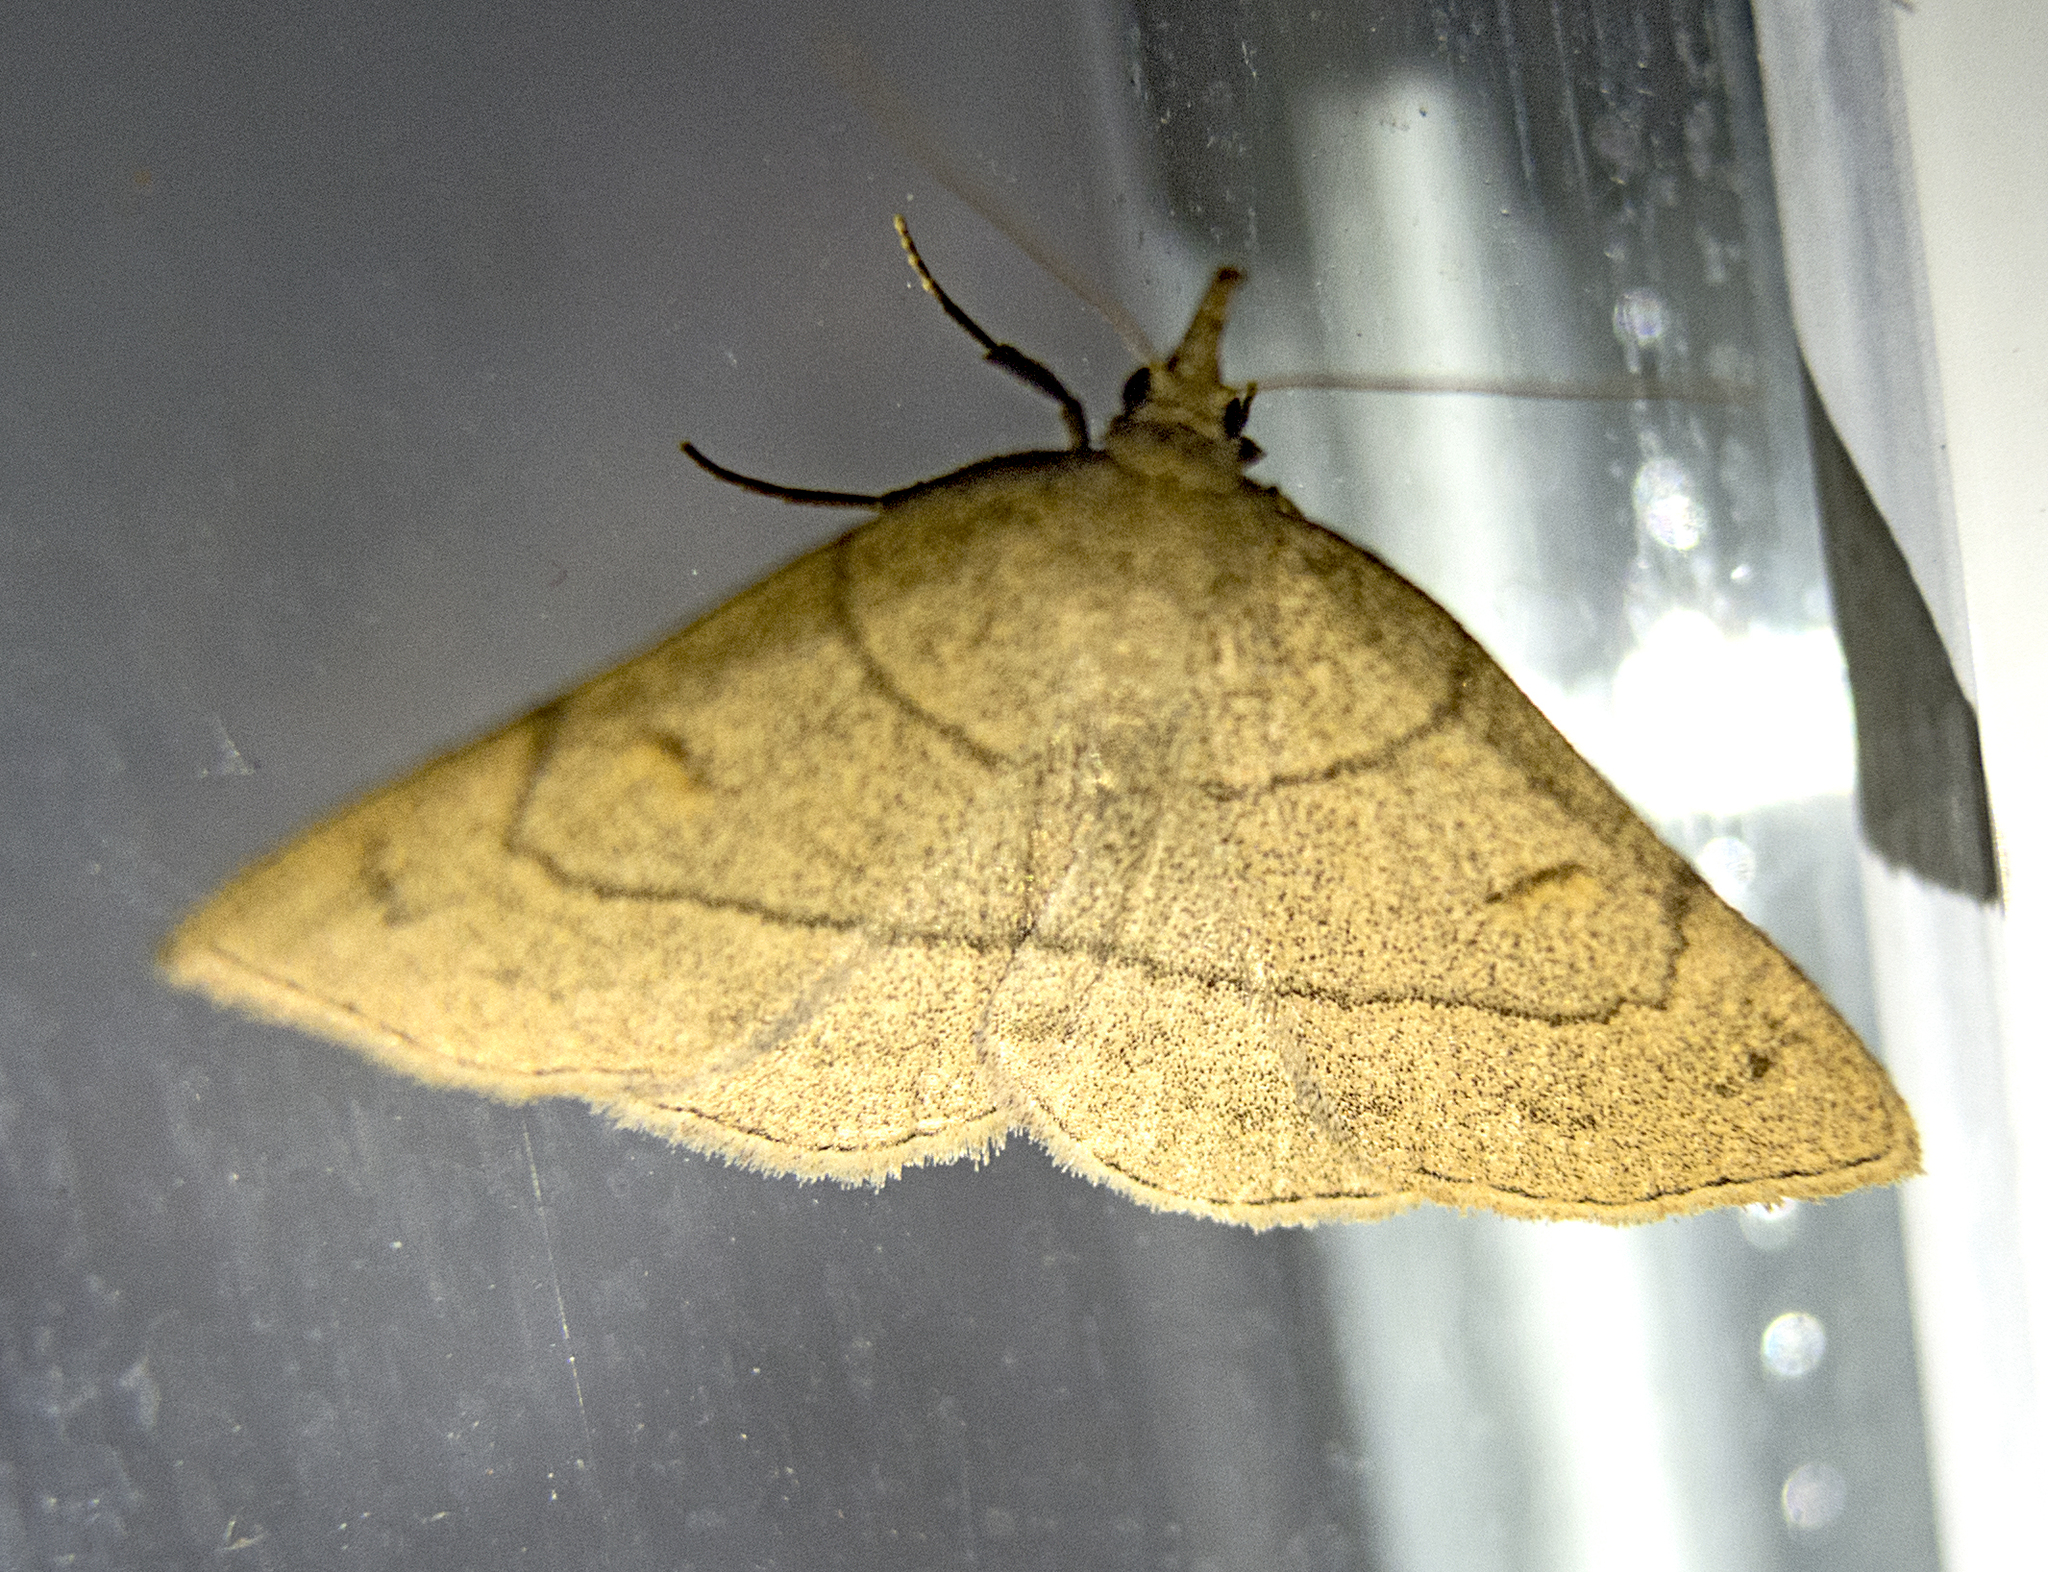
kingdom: Animalia
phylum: Arthropoda
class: Insecta
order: Lepidoptera
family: Erebidae
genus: Paracolax
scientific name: Paracolax tristalis
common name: Clay fan-foot
